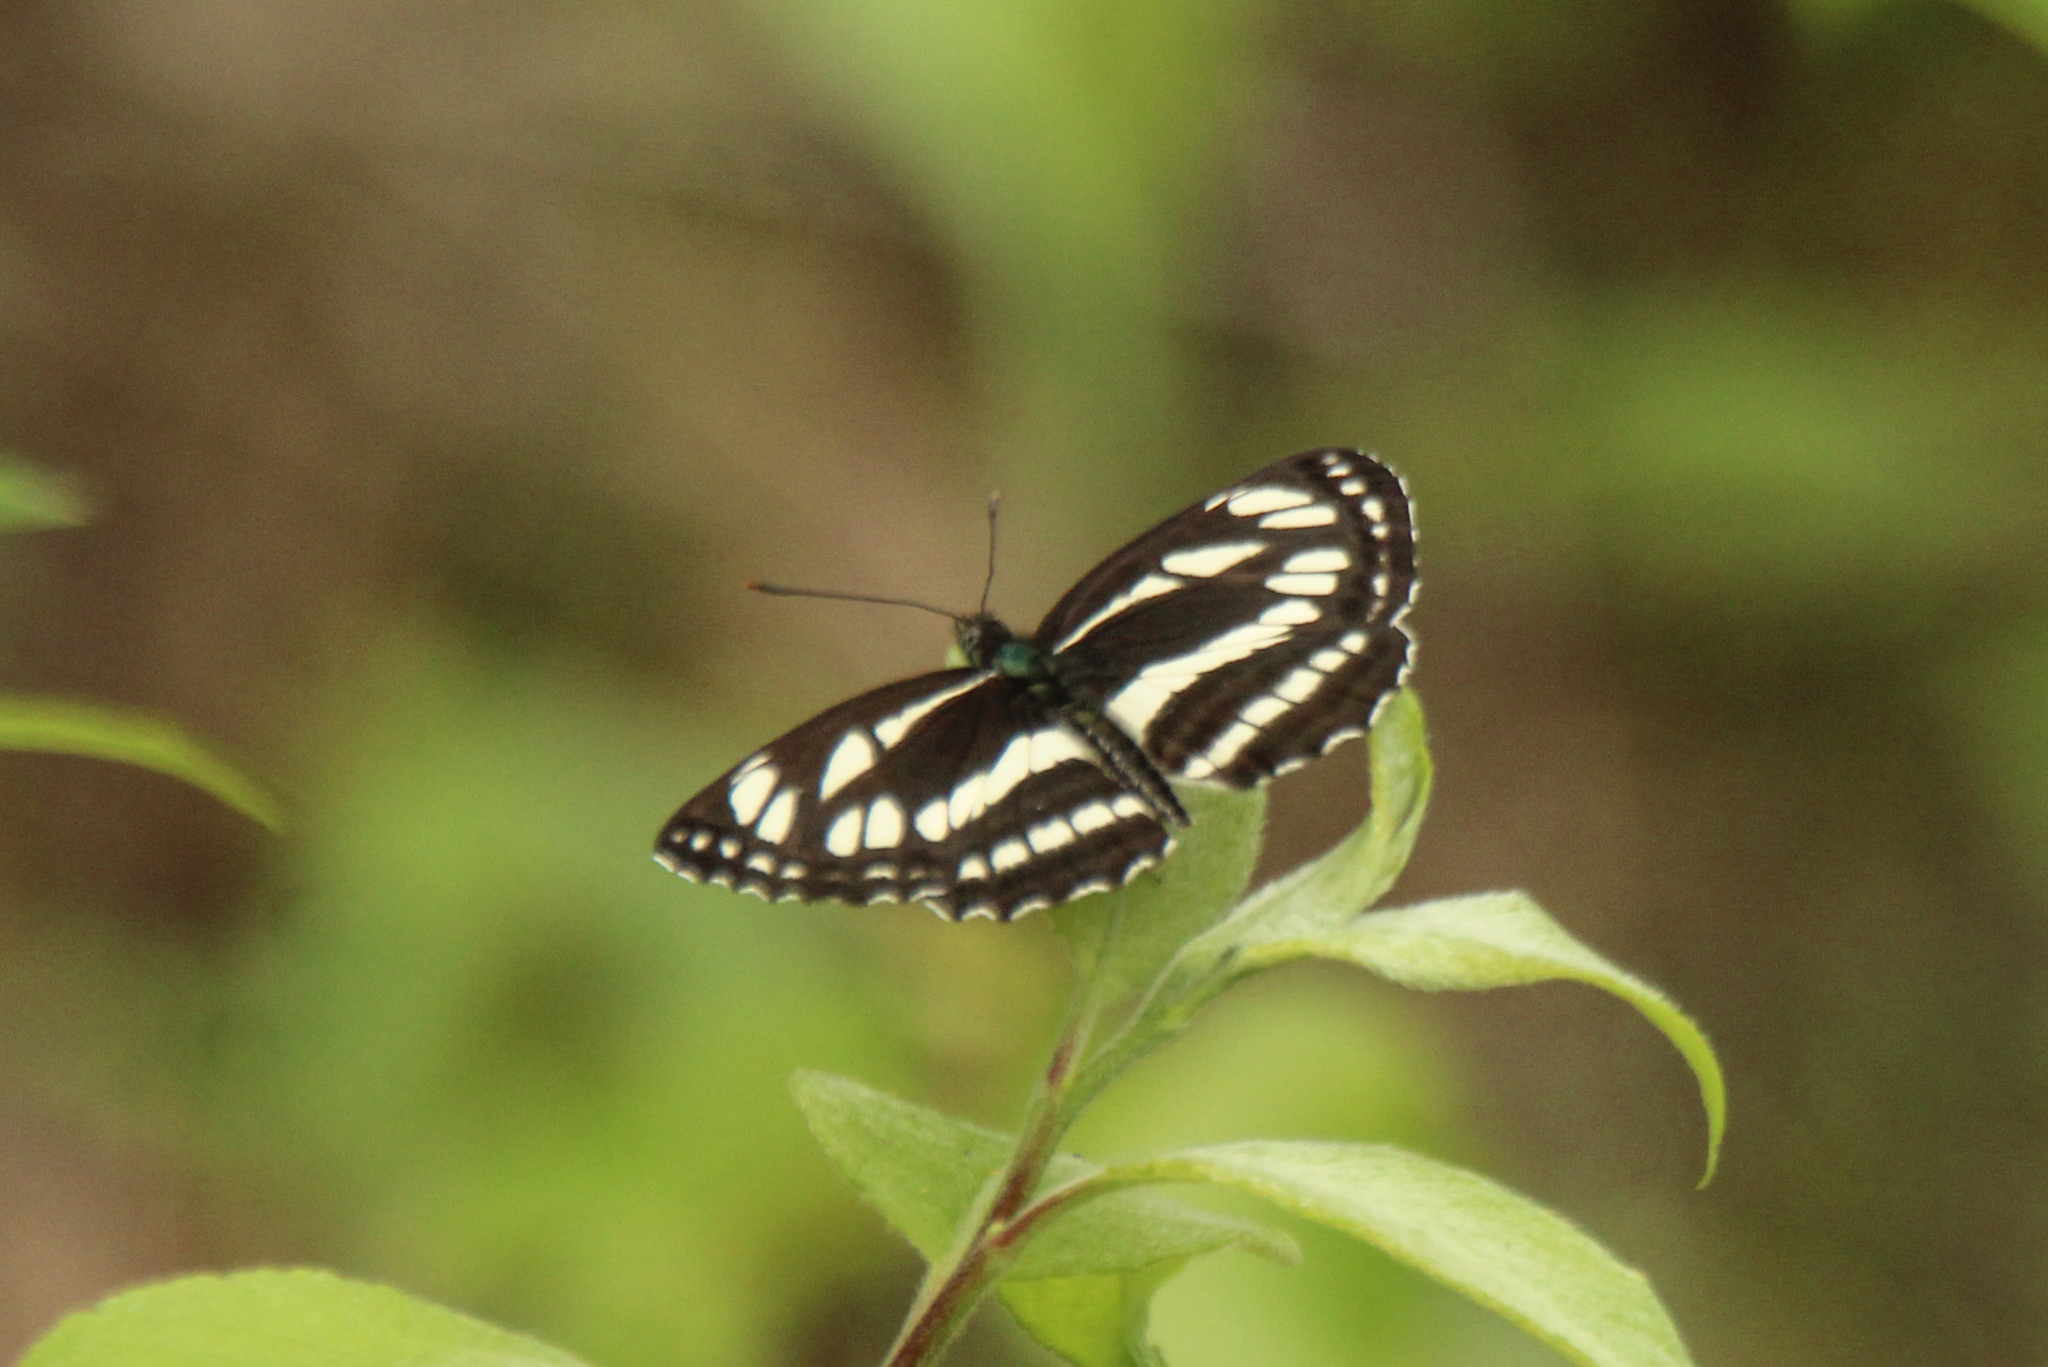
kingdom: Animalia
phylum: Arthropoda
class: Insecta
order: Lepidoptera
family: Nymphalidae
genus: Neptis
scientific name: Neptis sappho
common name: Common glider
